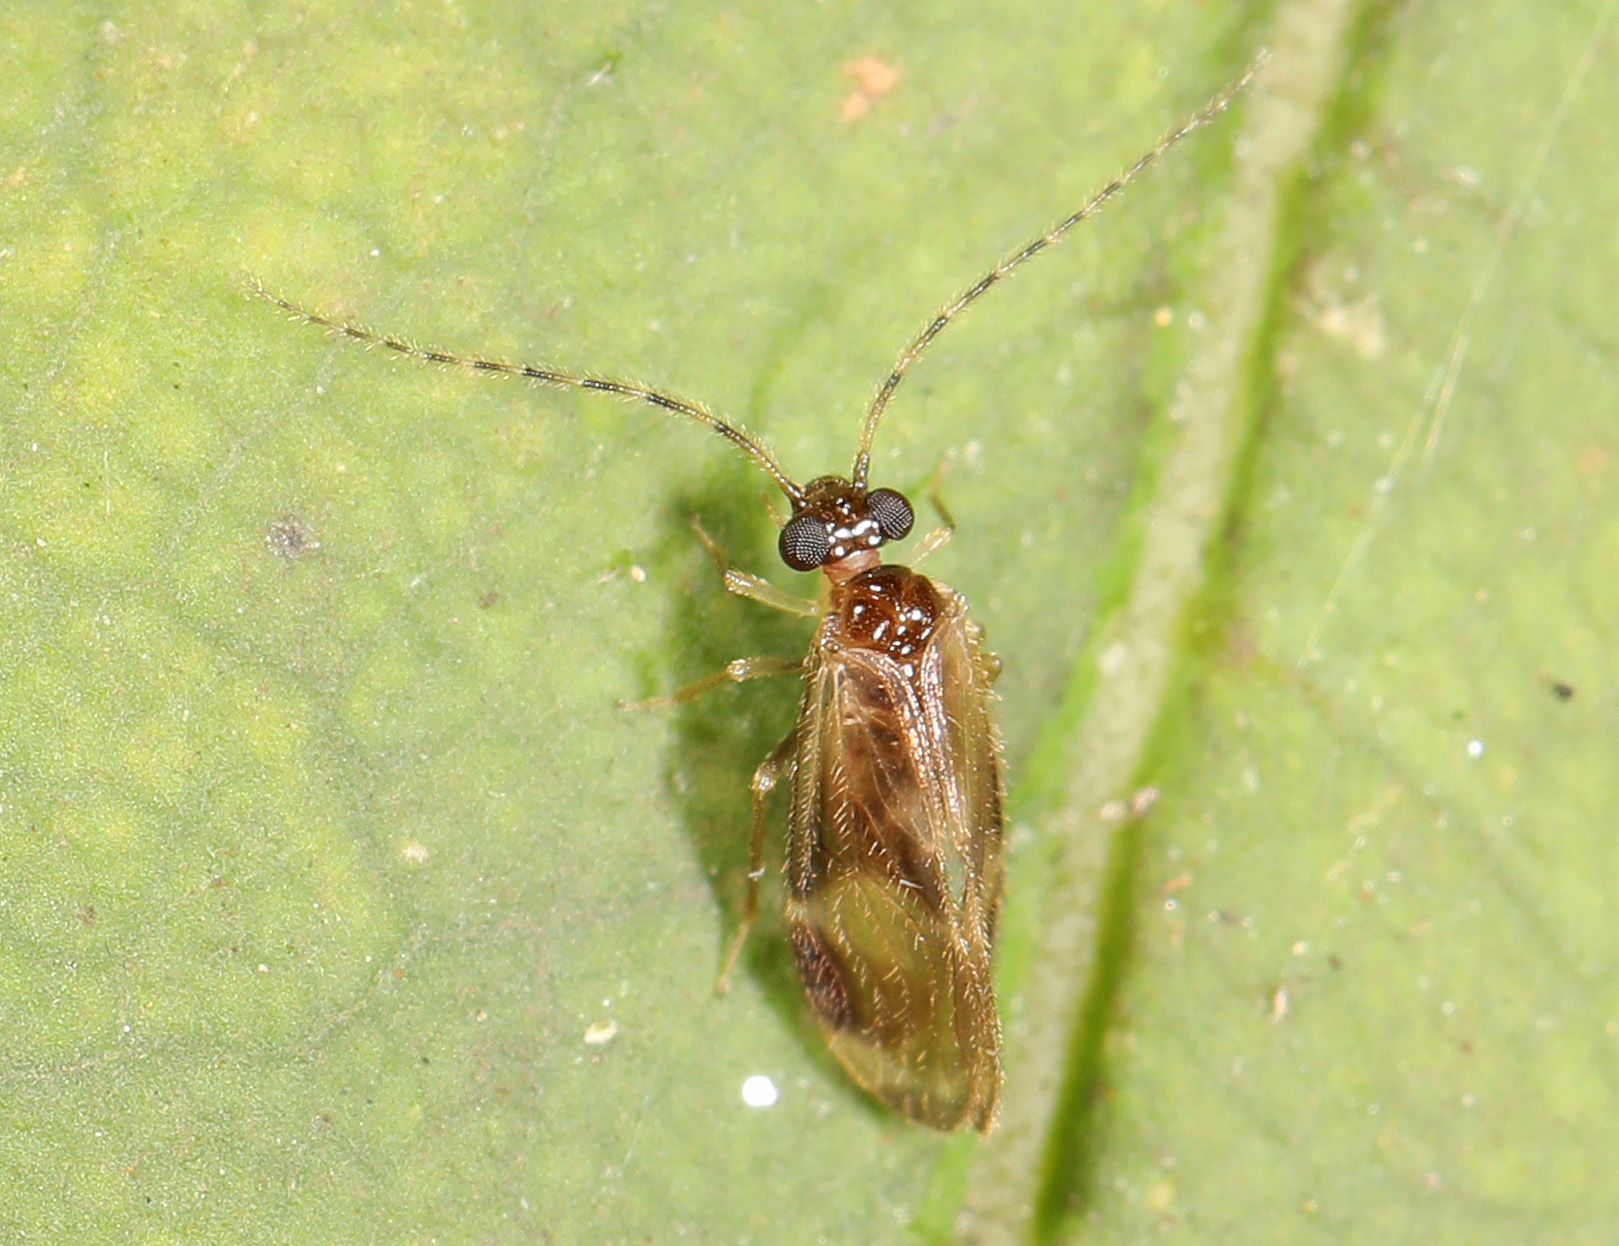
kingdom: Animalia
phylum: Arthropoda
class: Insecta
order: Psocodea
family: Amphipsocidae
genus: Polypsocus
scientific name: Polypsocus corruptus
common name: Corrupt barklouse
